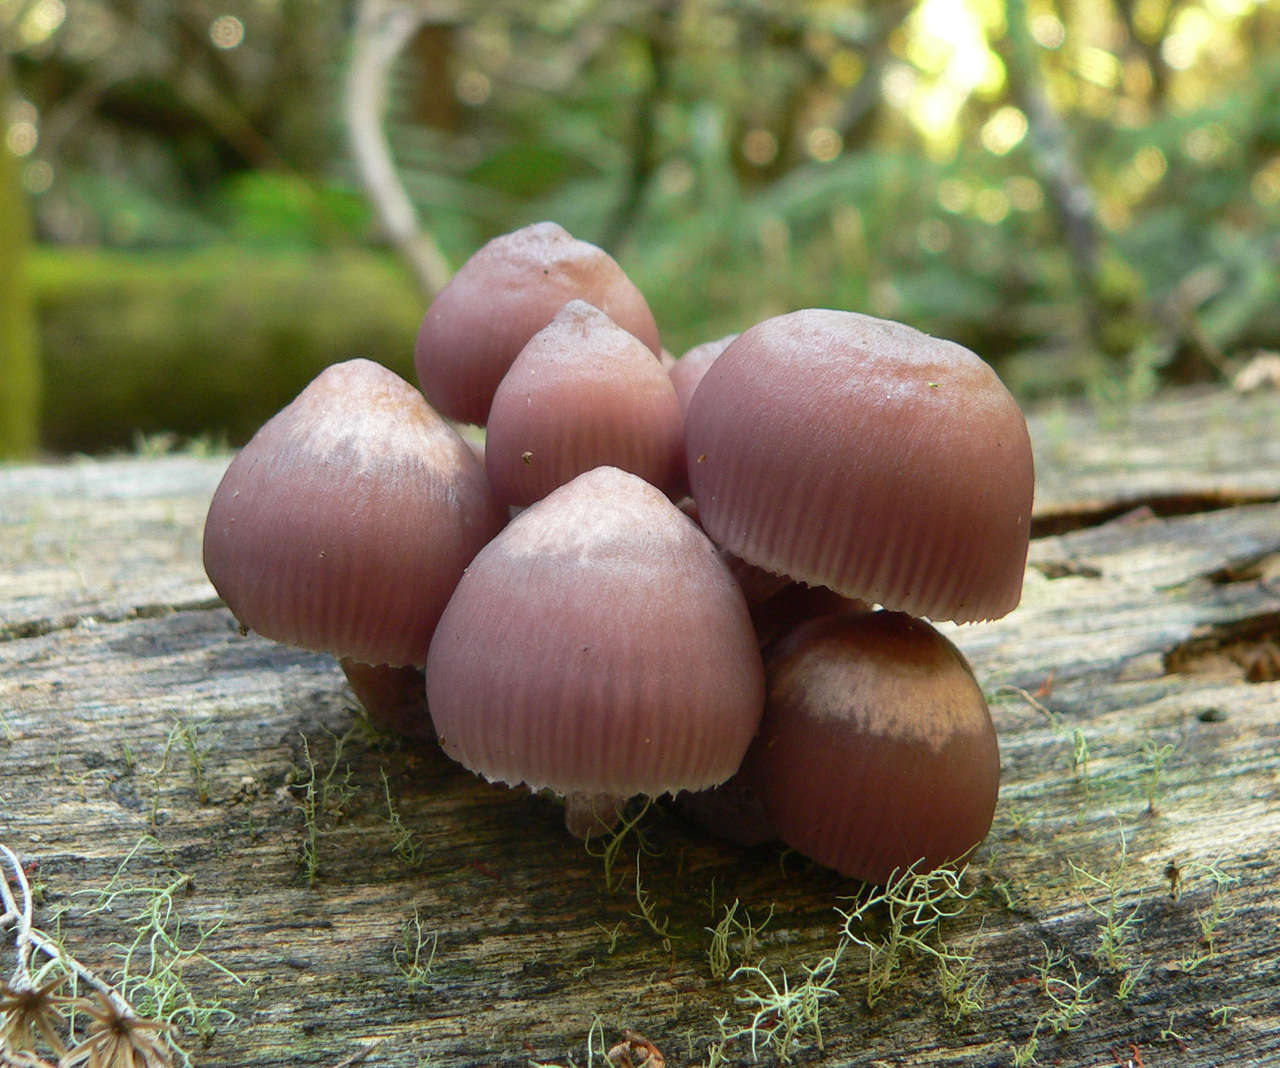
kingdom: Fungi
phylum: Basidiomycota
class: Agaricomycetes
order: Agaricales
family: Mycenaceae
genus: Mycena
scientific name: Mycena clarkeana
